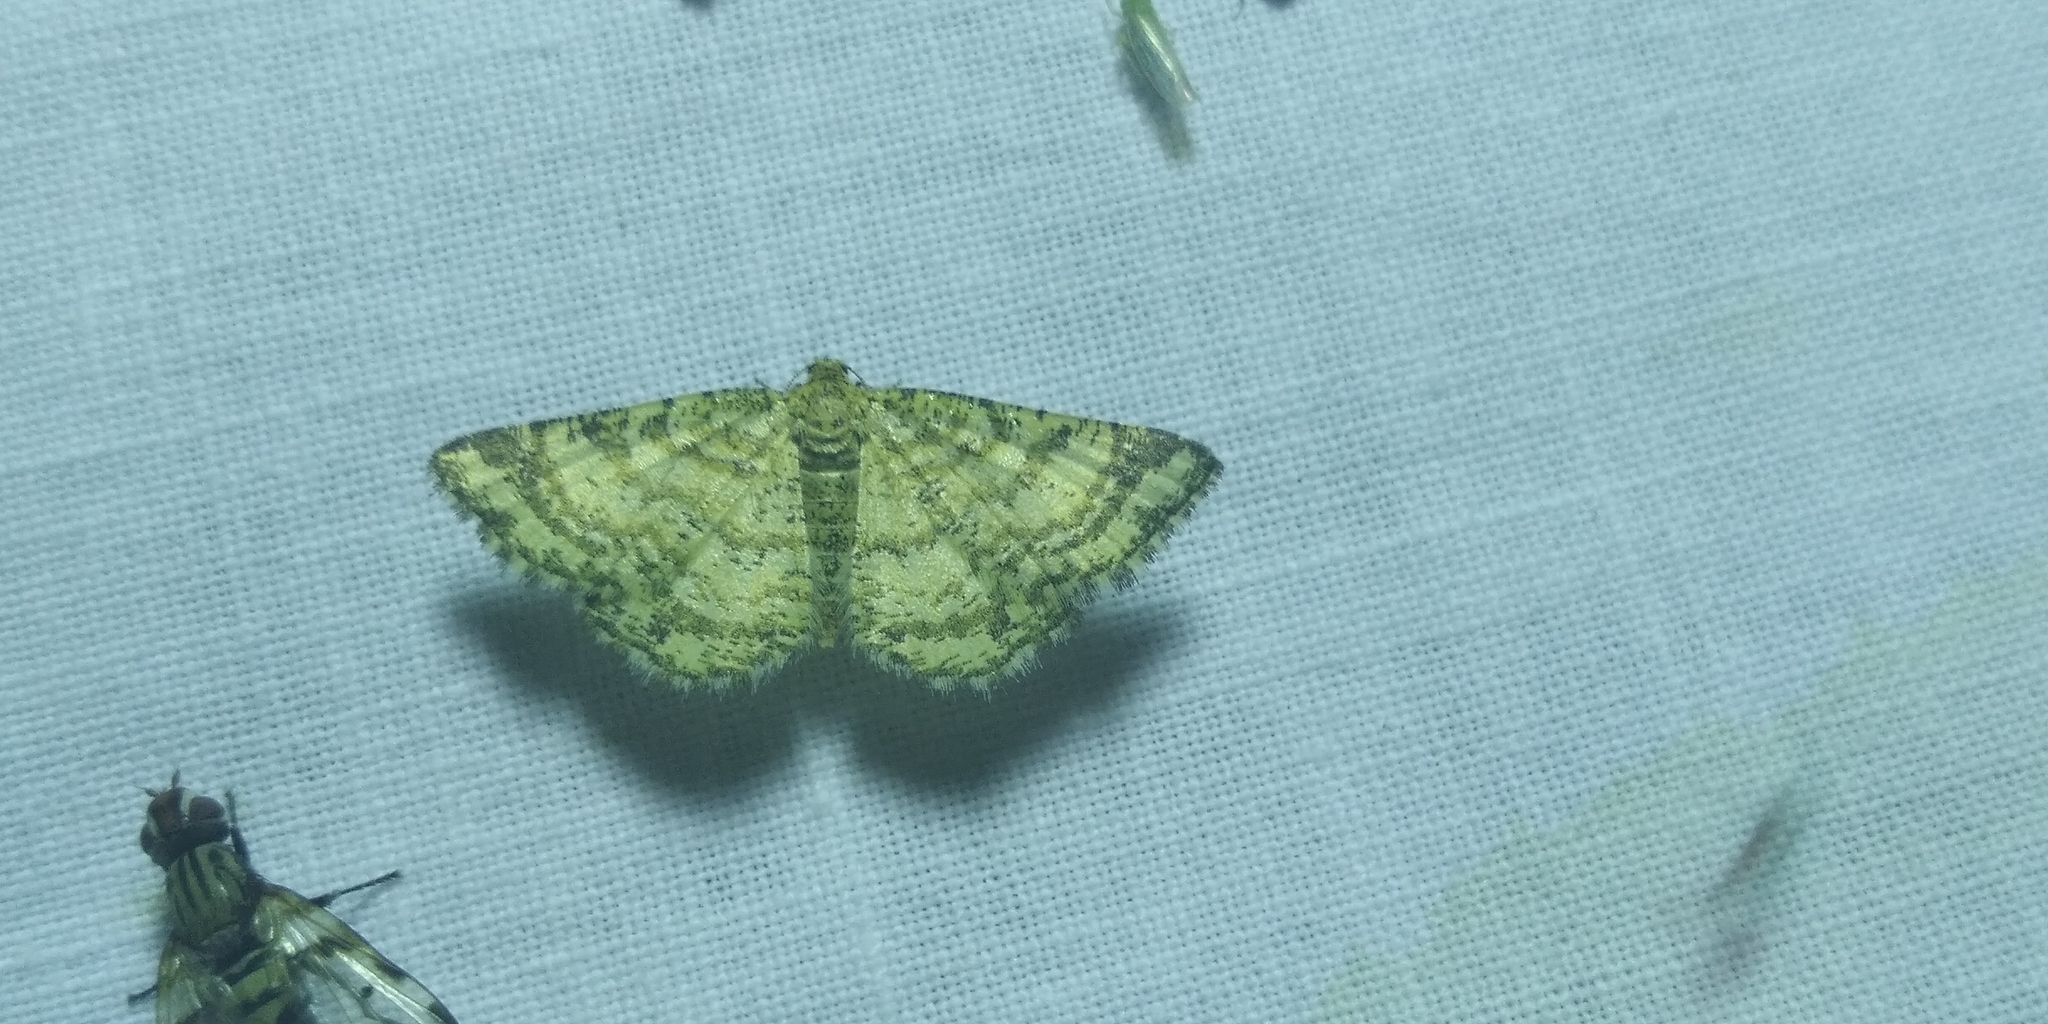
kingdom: Animalia
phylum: Arthropoda
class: Insecta
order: Lepidoptera
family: Geometridae
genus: Heliomata
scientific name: Heliomata glarearia
